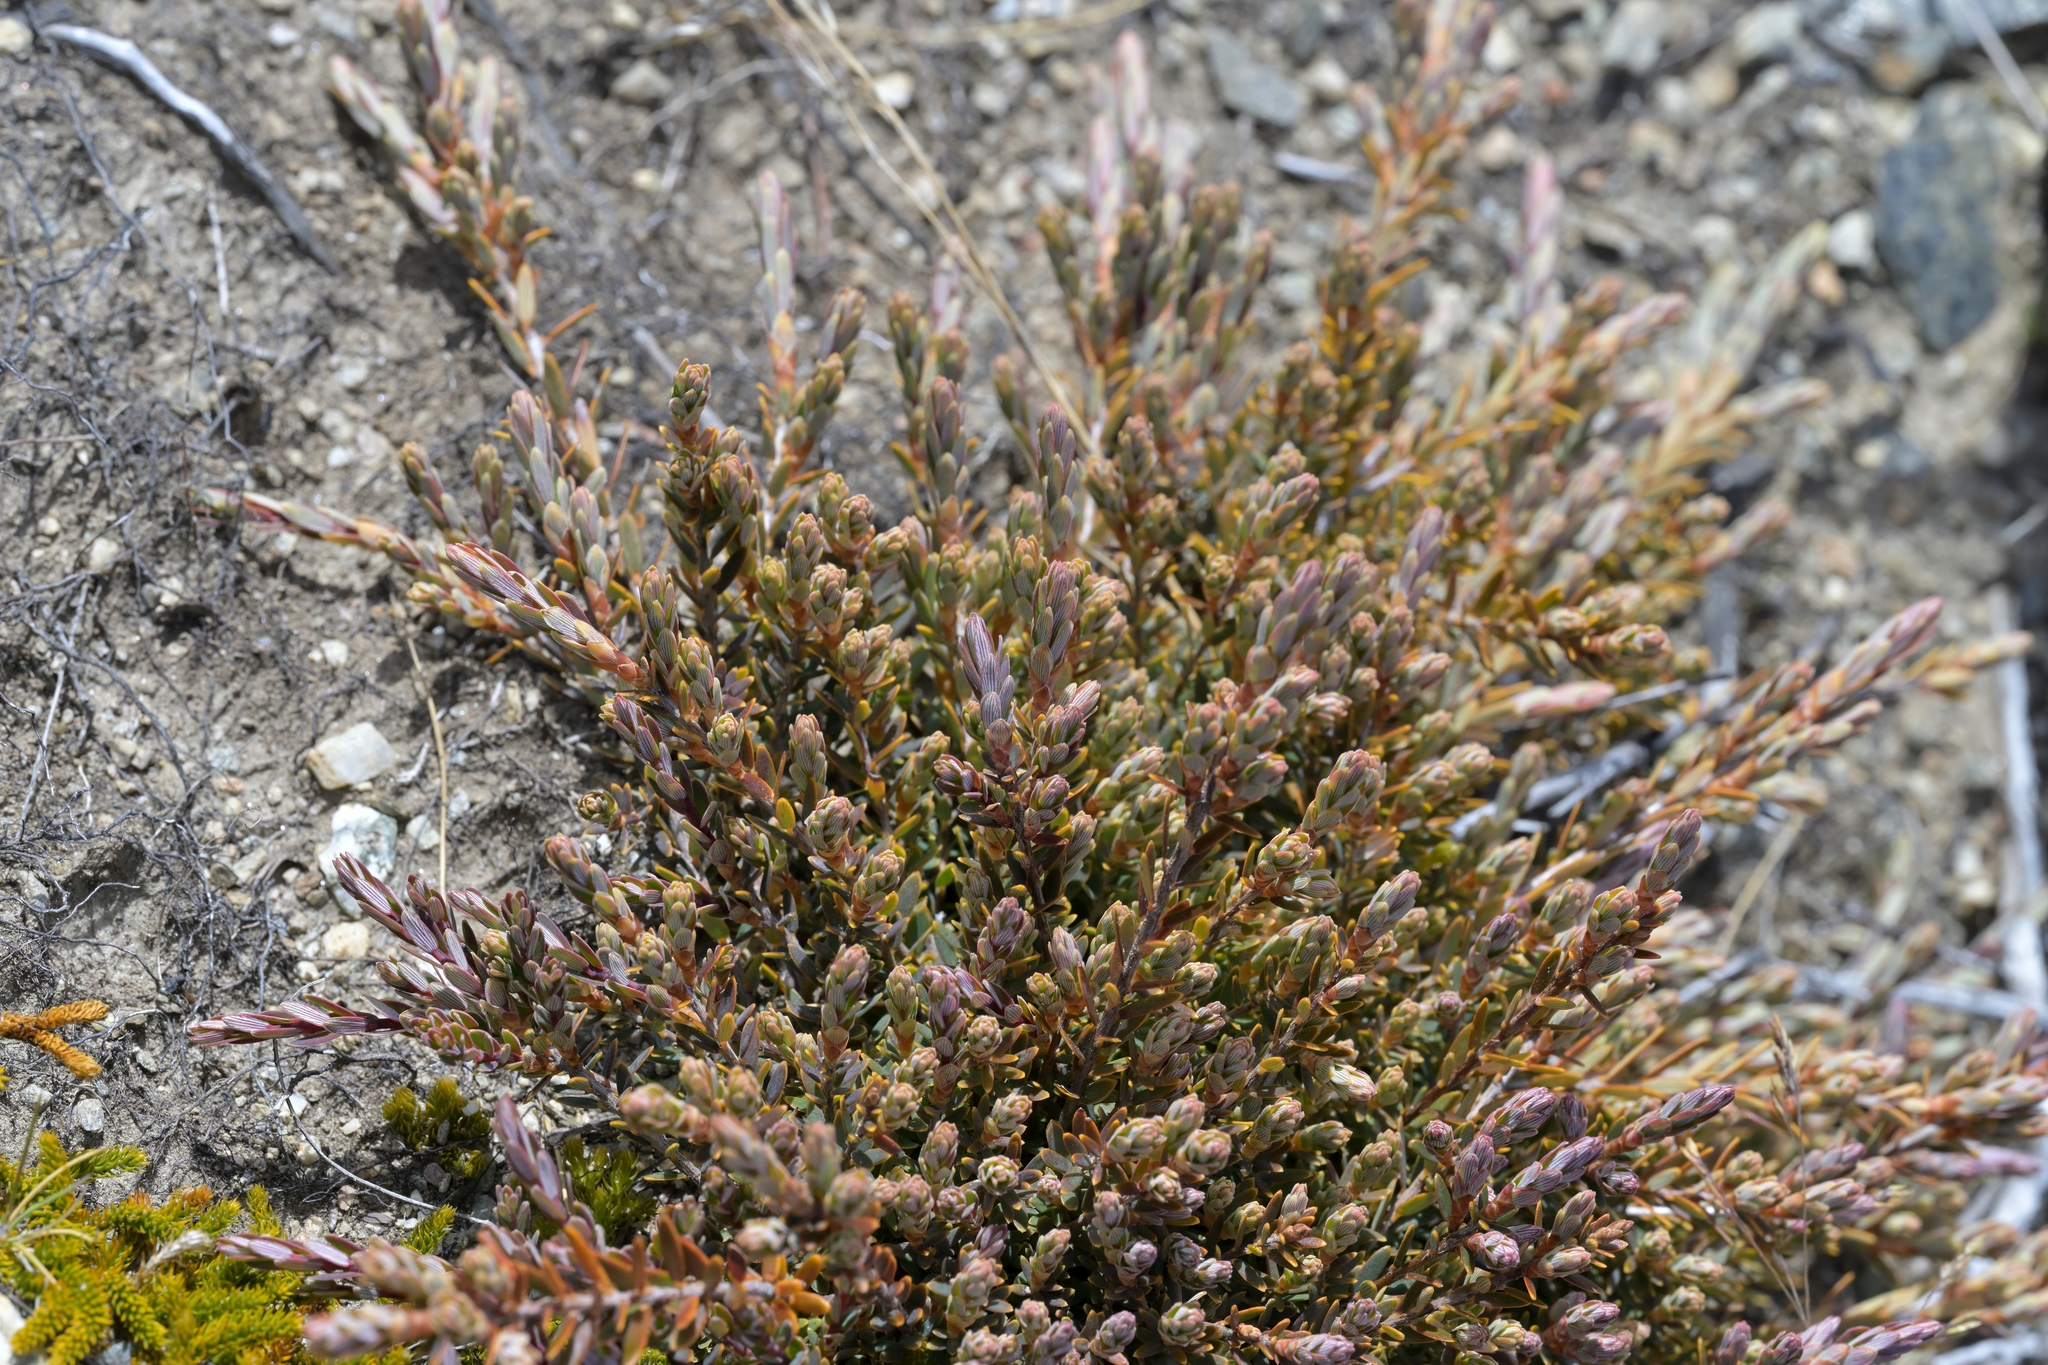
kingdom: Plantae
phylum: Tracheophyta
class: Magnoliopsida
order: Ericales
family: Ericaceae
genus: Acrothamnus
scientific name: Acrothamnus colensoi
